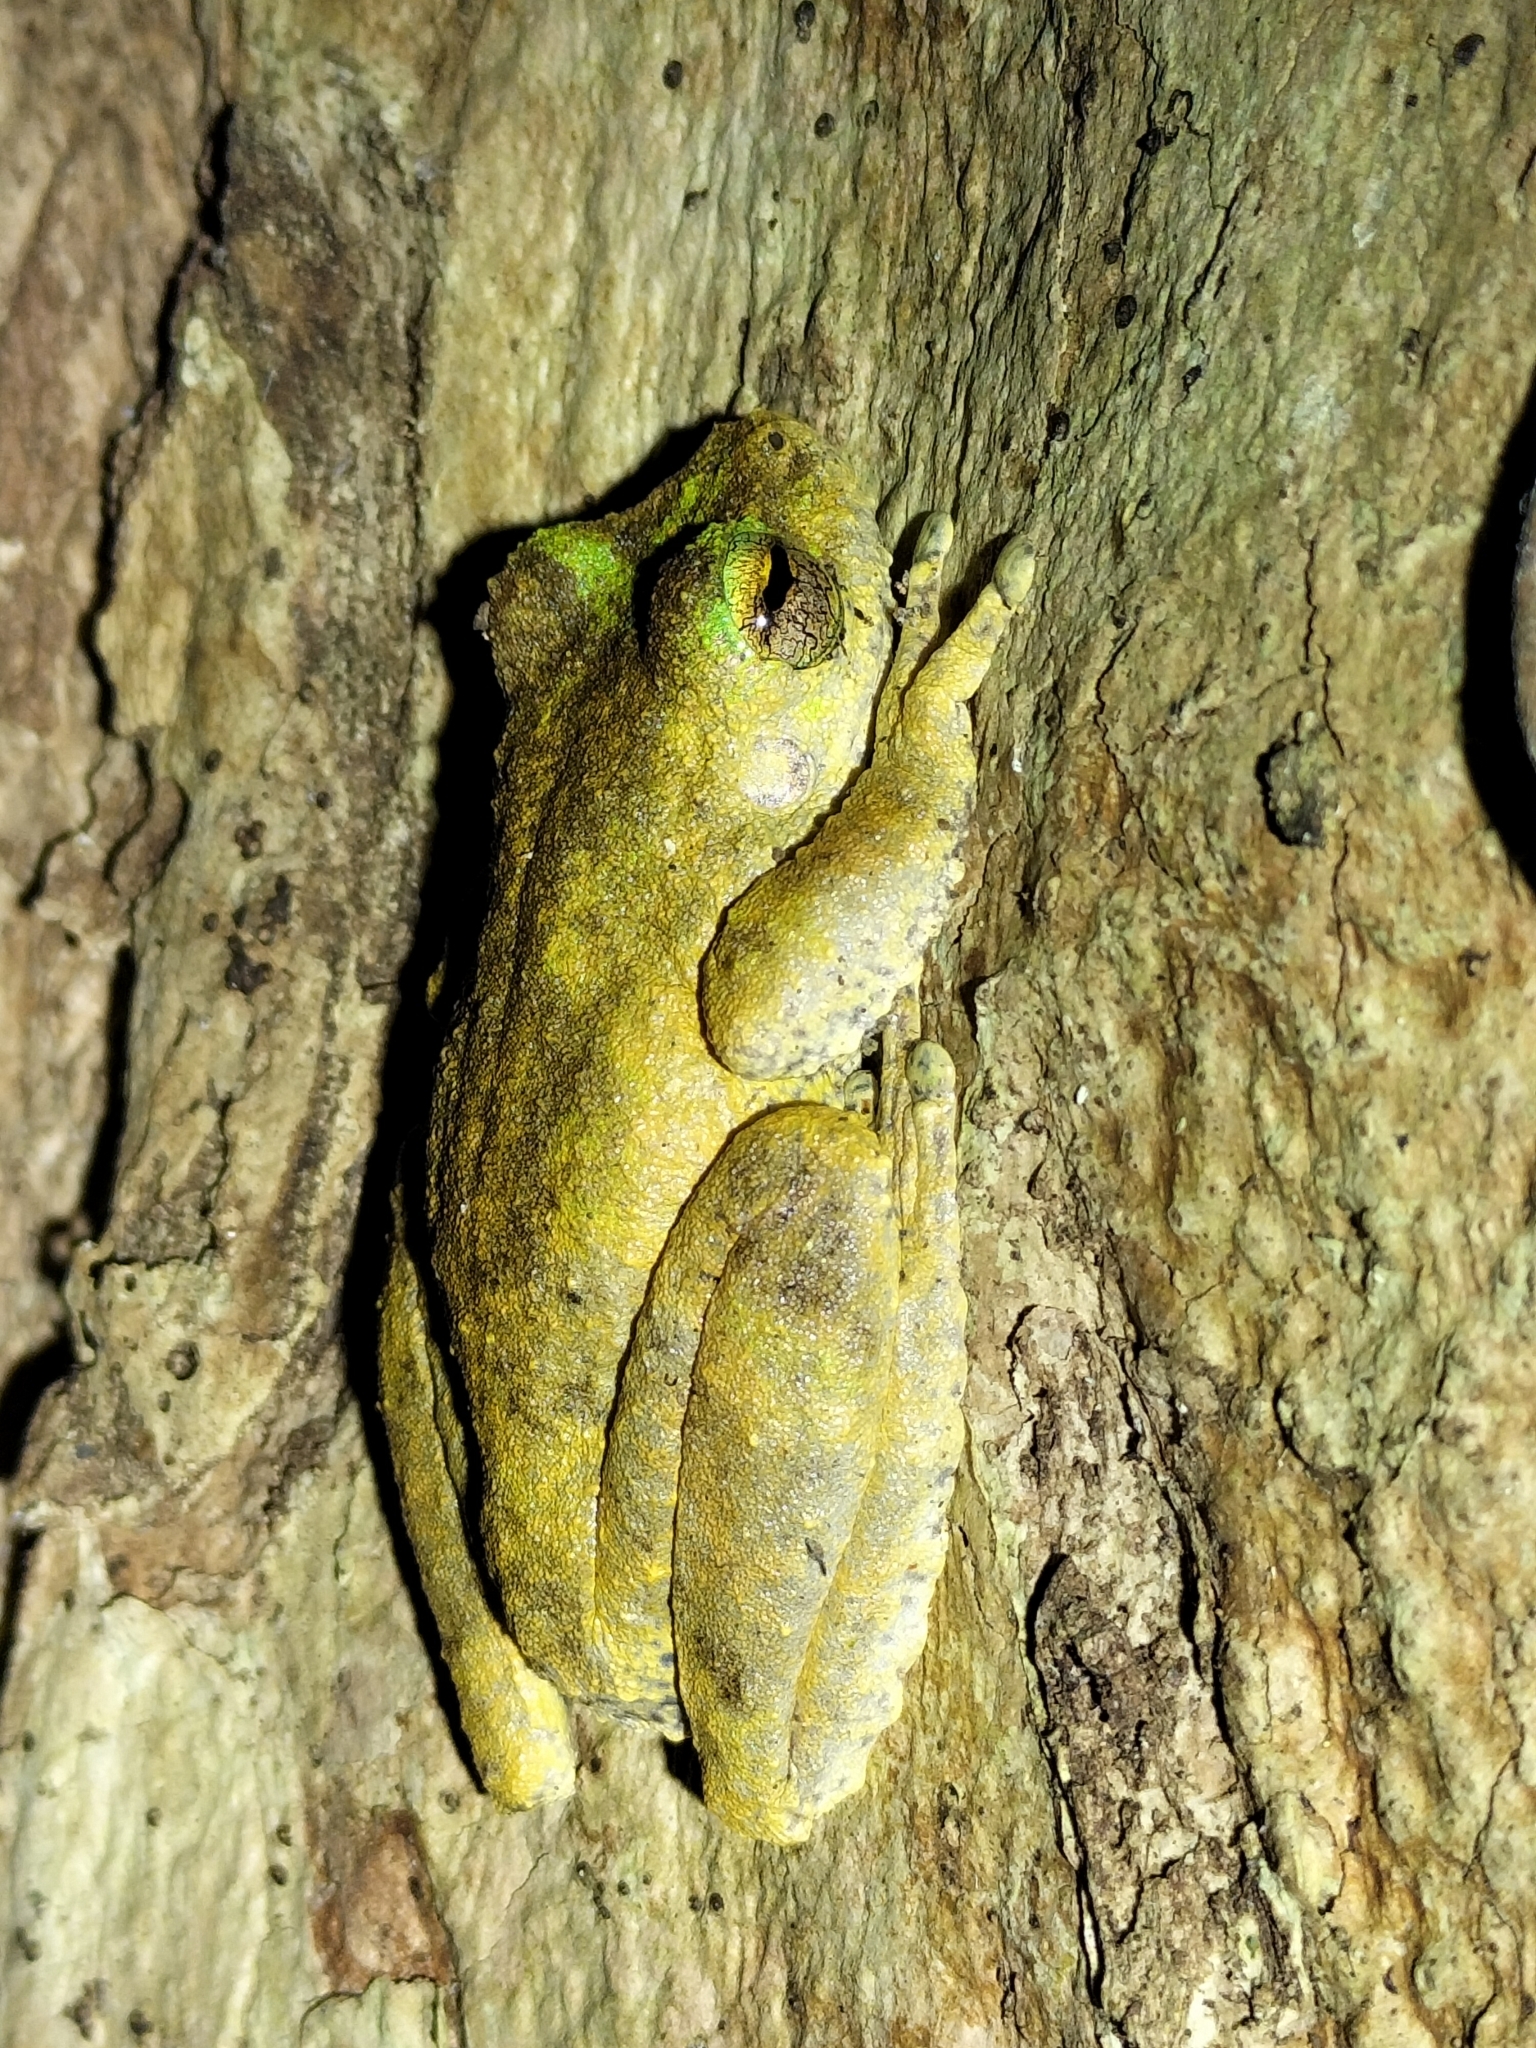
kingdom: Animalia
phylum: Chordata
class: Amphibia
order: Anura
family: Pelodryadidae
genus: Ranoidea
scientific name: Ranoidea serrata
